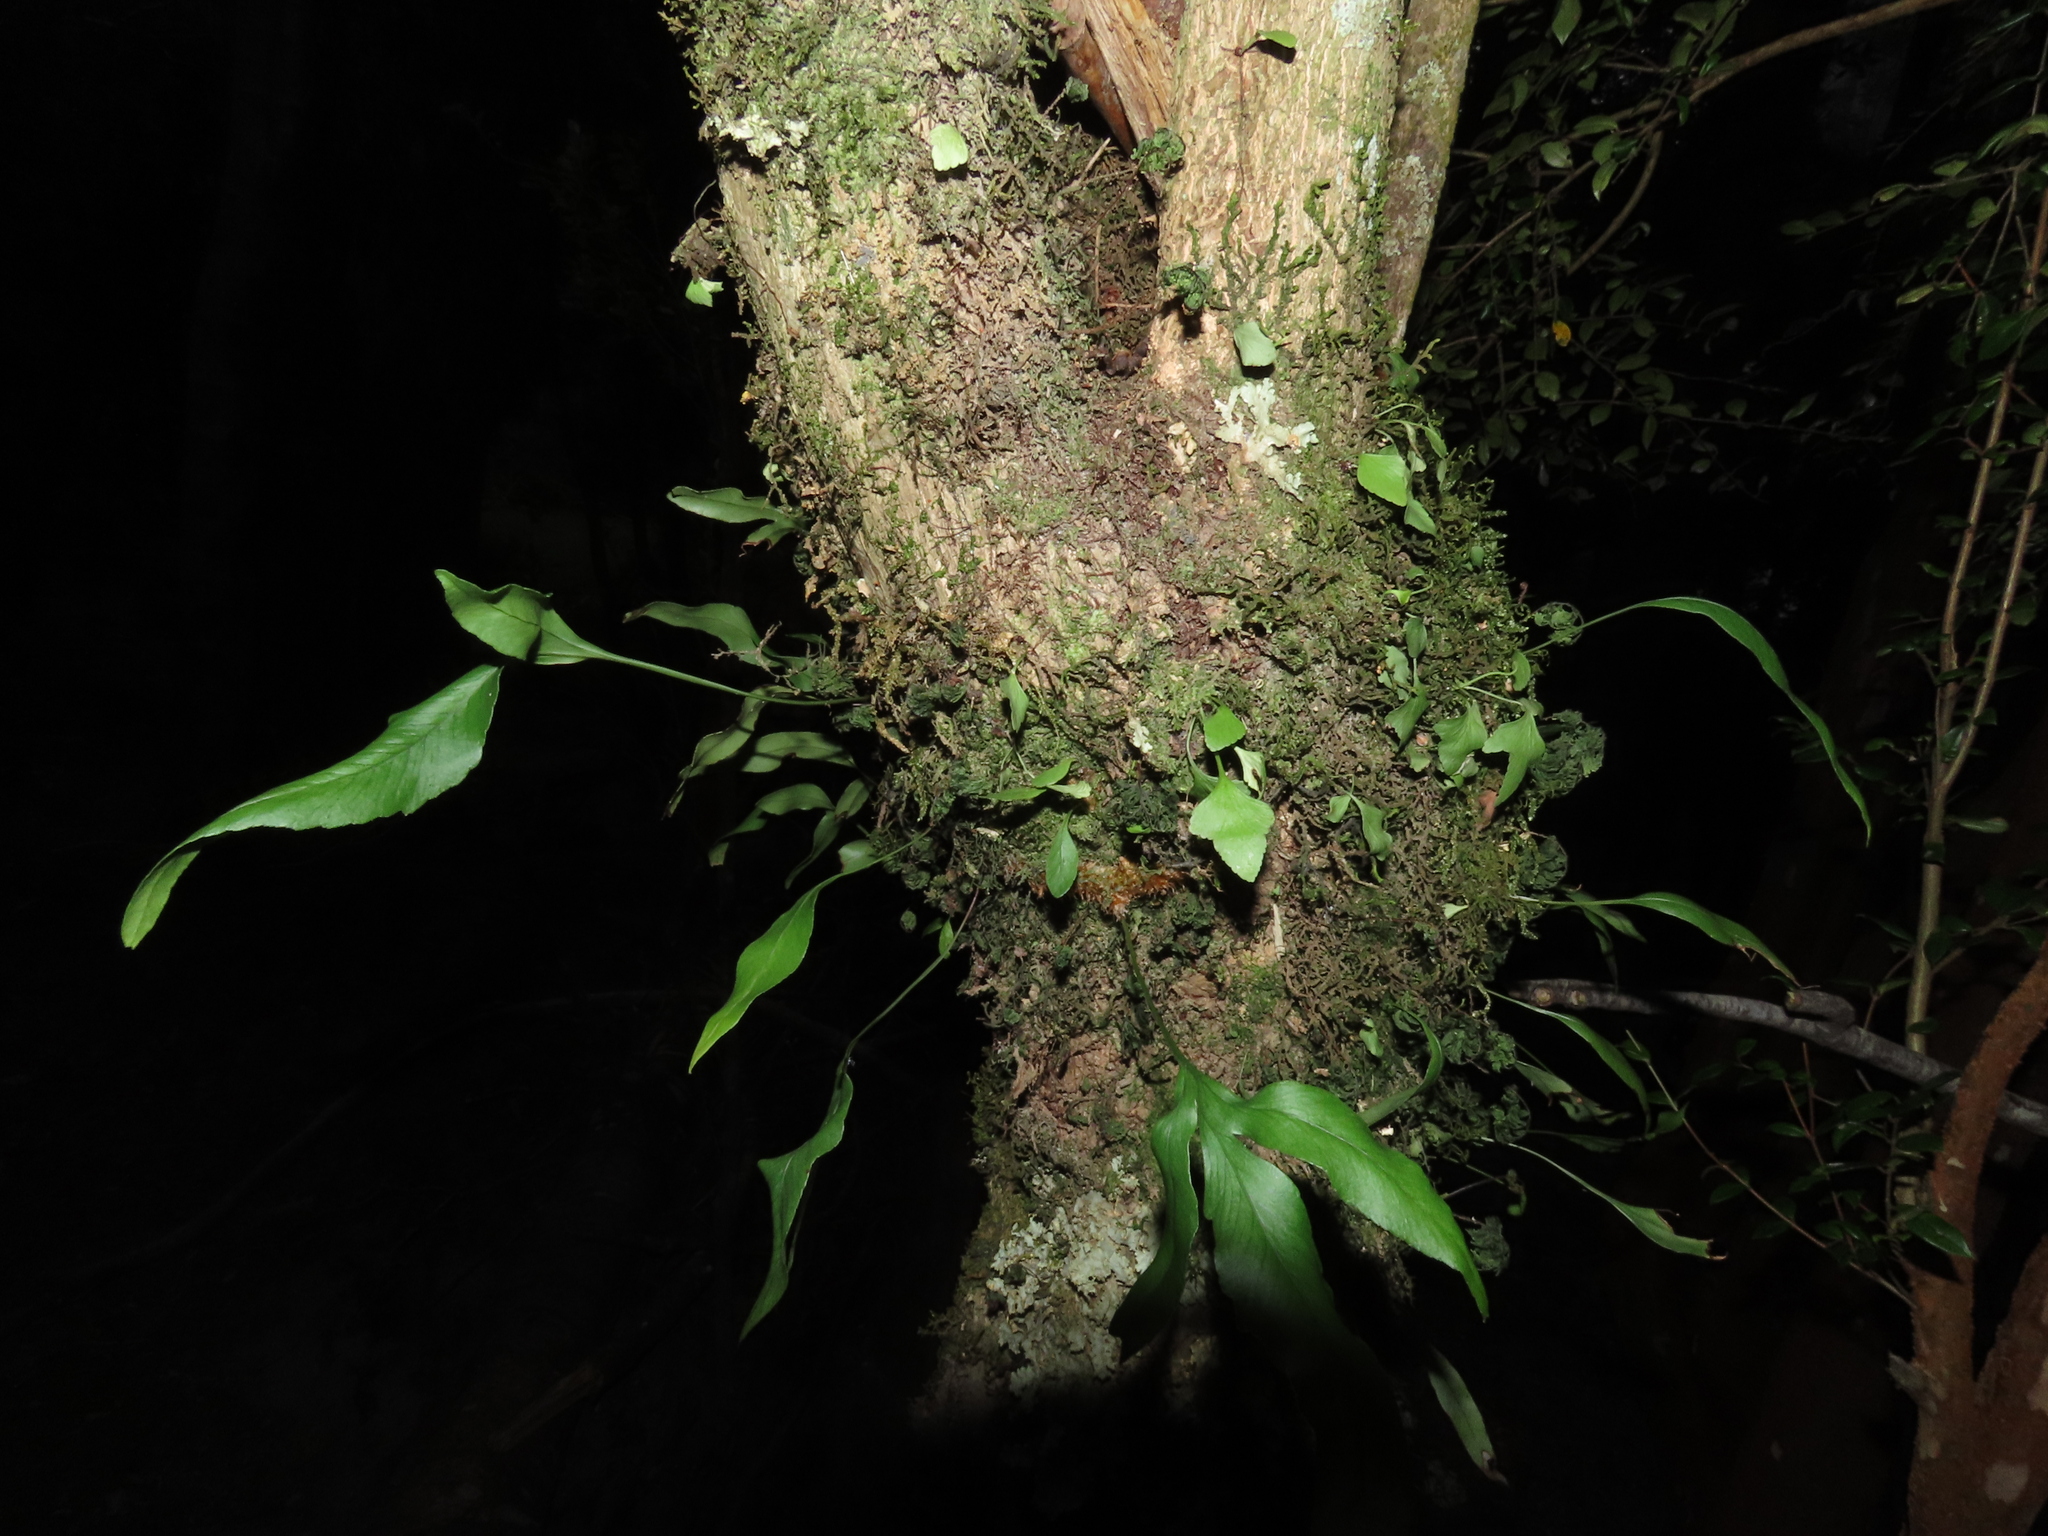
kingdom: Plantae
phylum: Tracheophyta
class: Polypodiopsida
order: Polypodiales
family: Polypodiaceae
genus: Synammia
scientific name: Synammia feuillei
